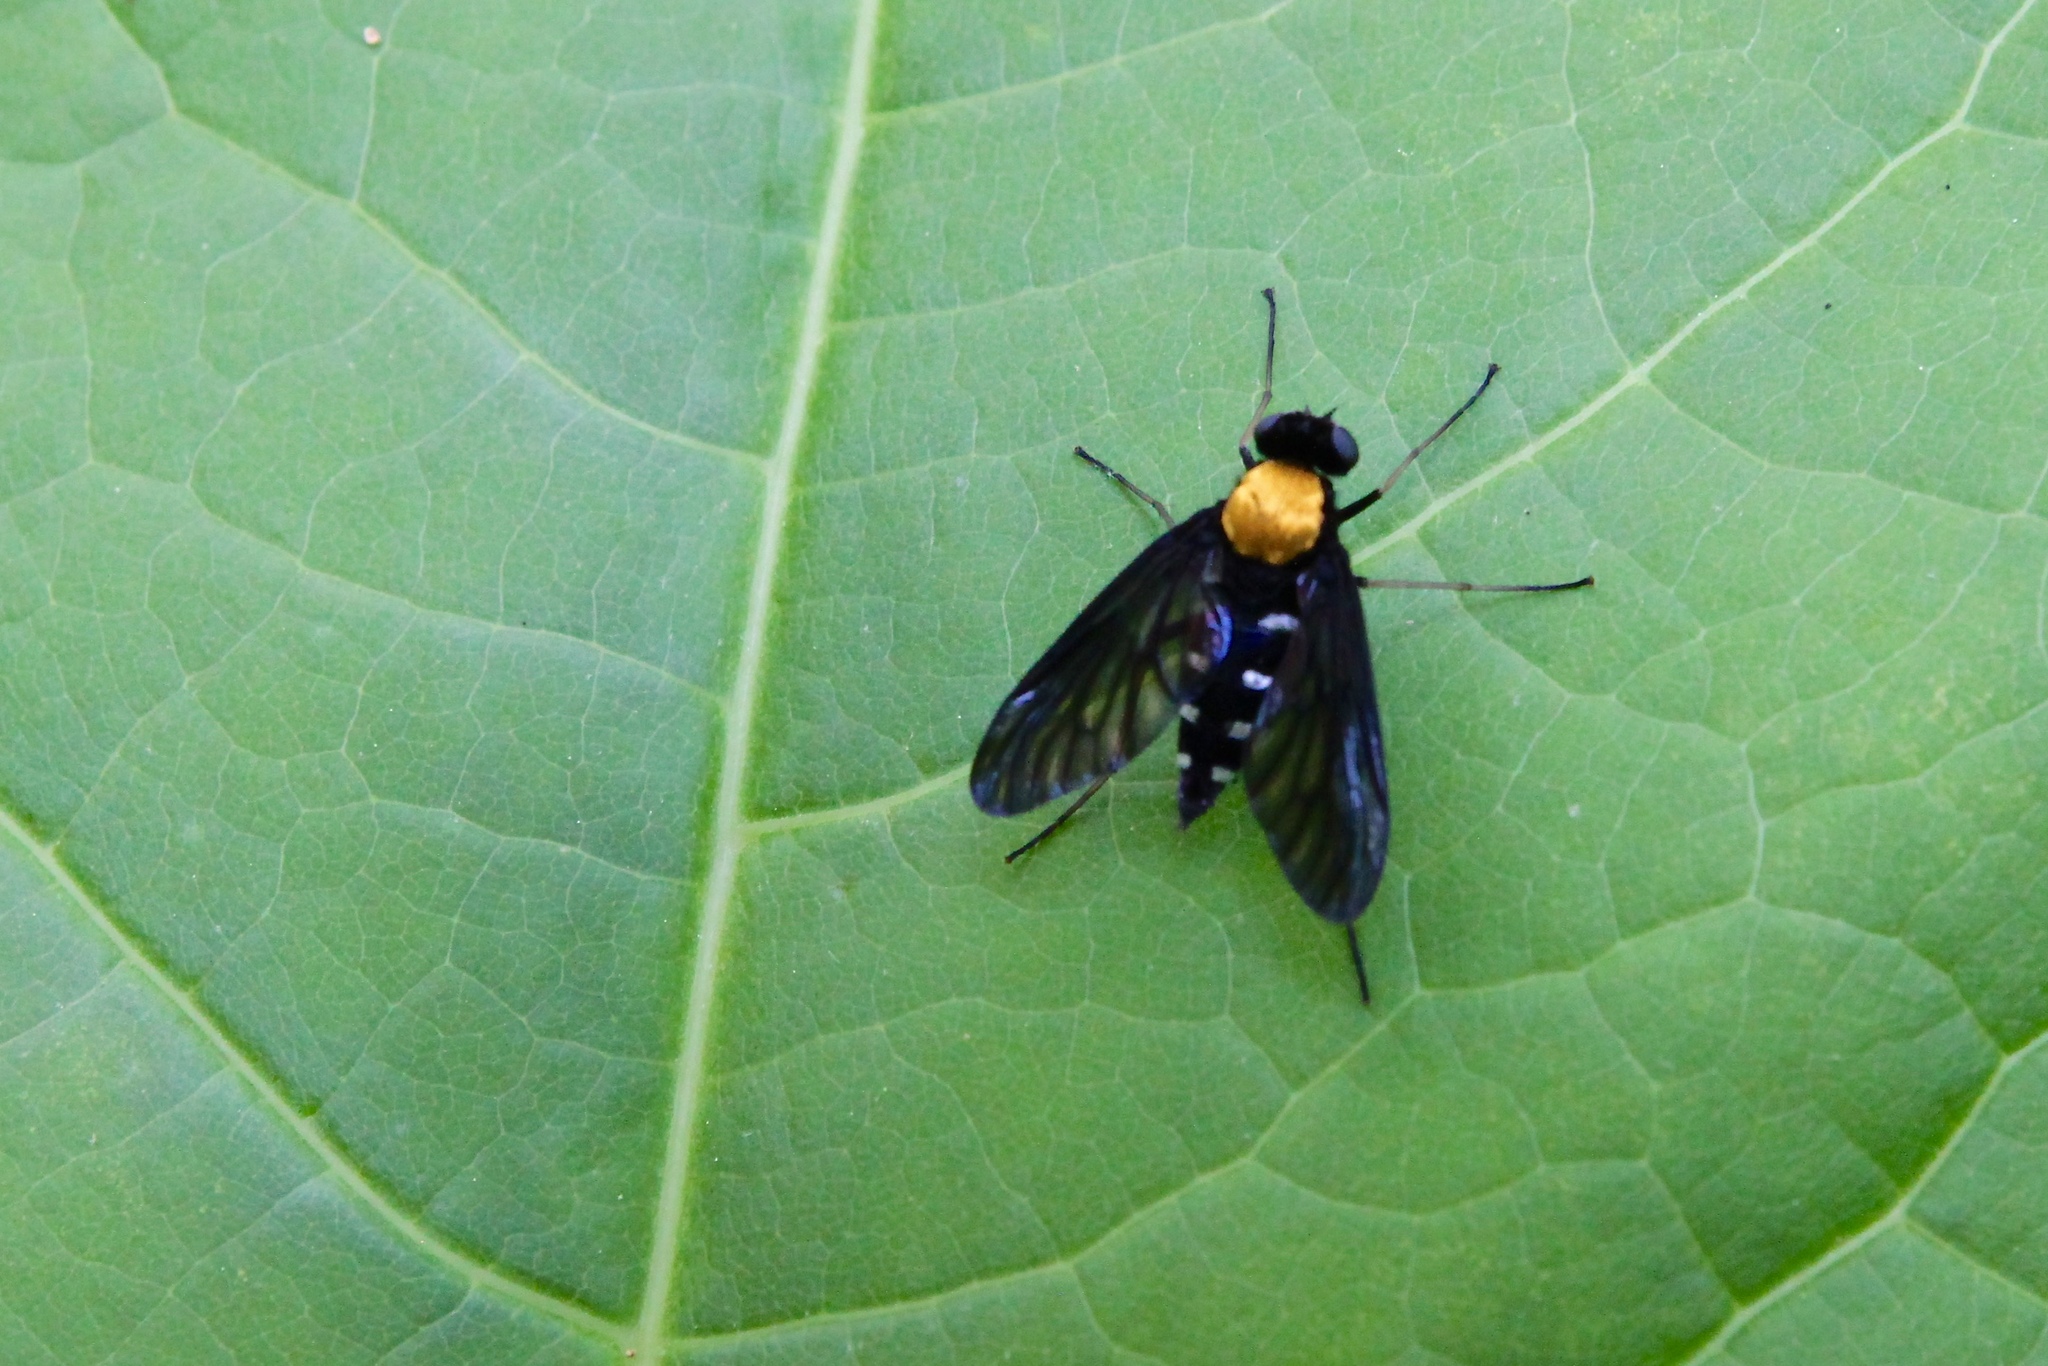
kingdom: Animalia
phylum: Arthropoda
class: Insecta
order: Diptera
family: Rhagionidae
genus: Chrysopilus
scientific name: Chrysopilus thoracicus
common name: Golden-backed snipe fly
